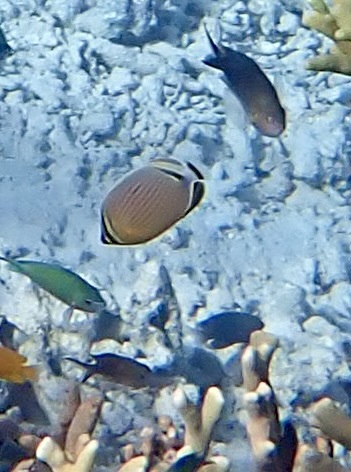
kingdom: Animalia
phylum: Chordata
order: Perciformes
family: Chaetodontidae
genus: Chaetodon
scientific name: Chaetodon lunulatus
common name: Redfin butterflyfish
